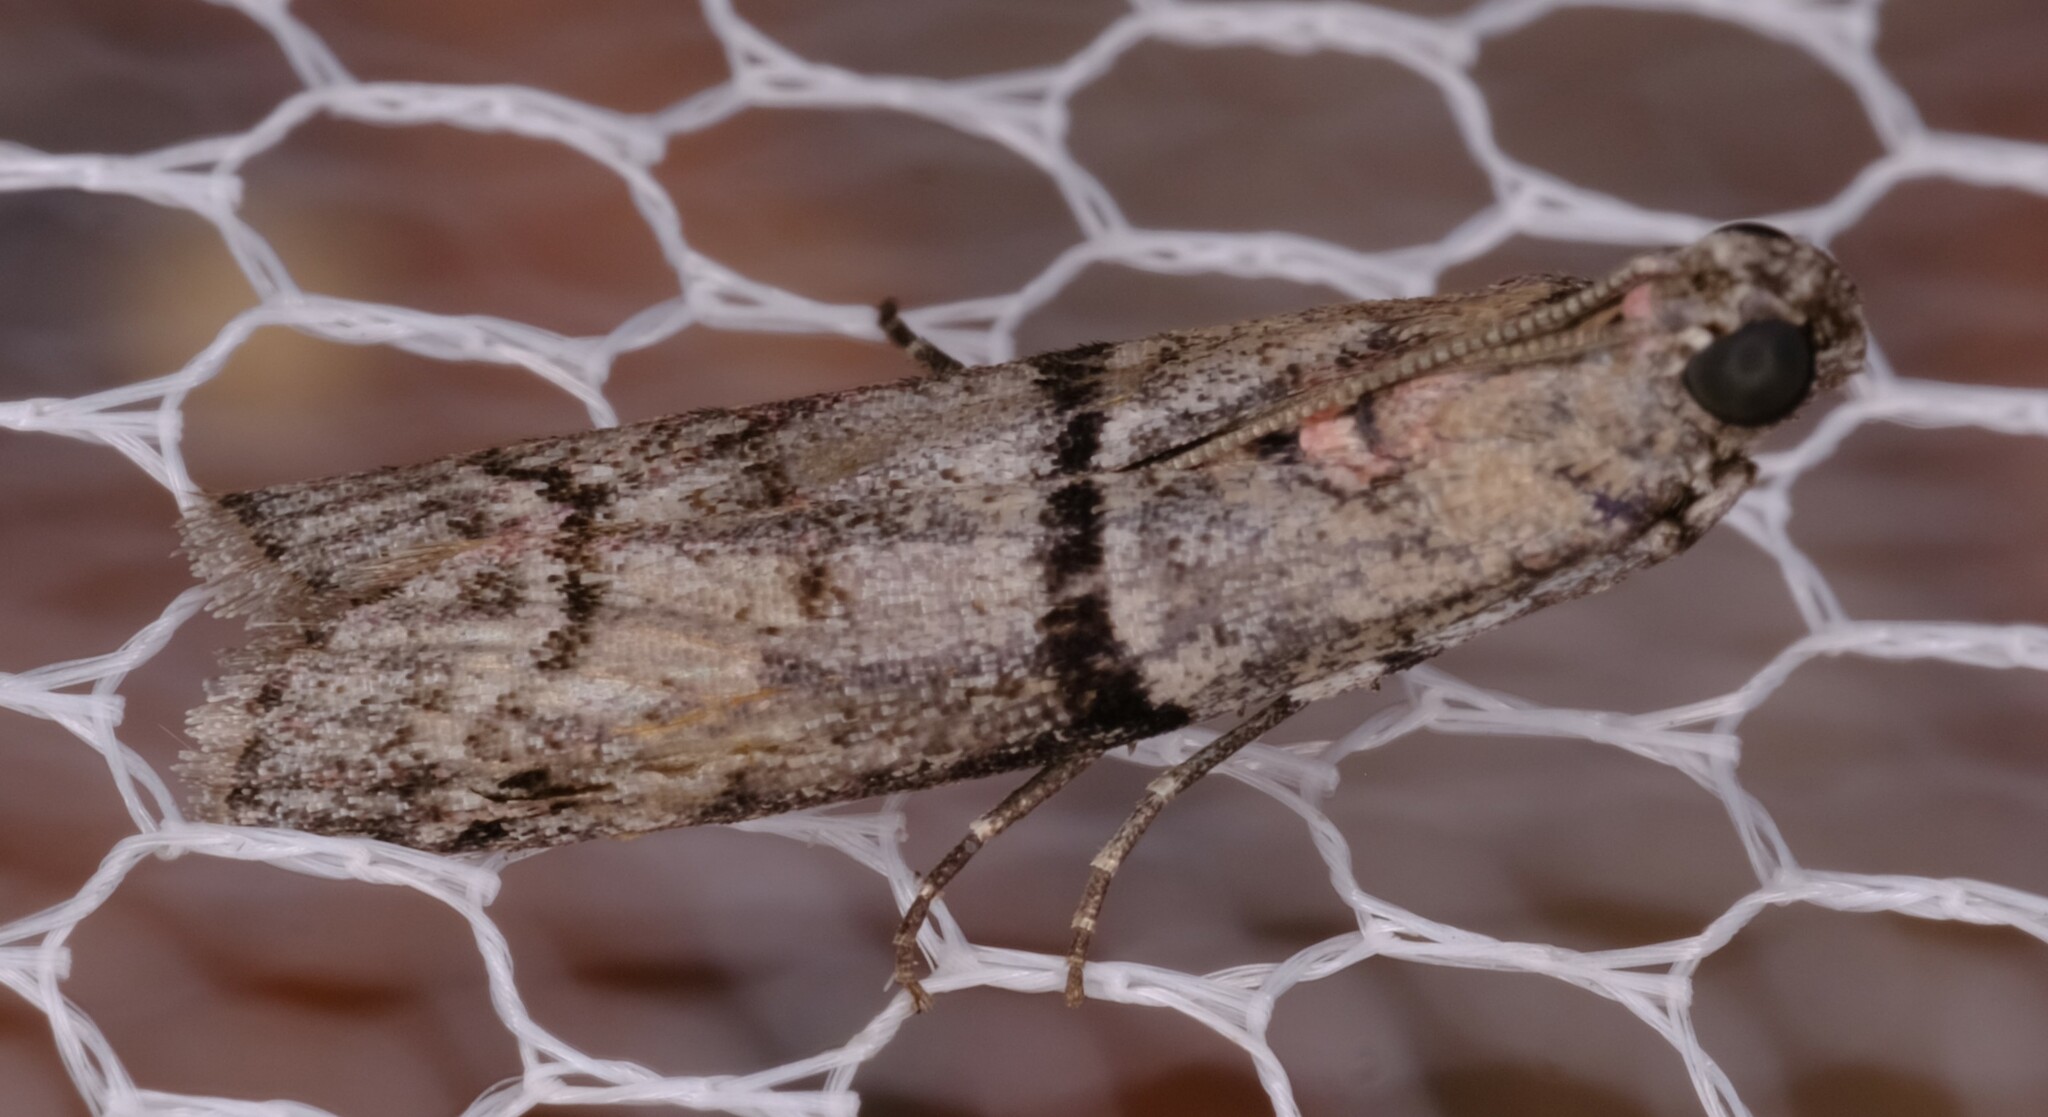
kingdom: Animalia
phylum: Arthropoda
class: Insecta
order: Lepidoptera
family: Pyralidae
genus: Cryptoblabes
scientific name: Cryptoblabes euraphella
